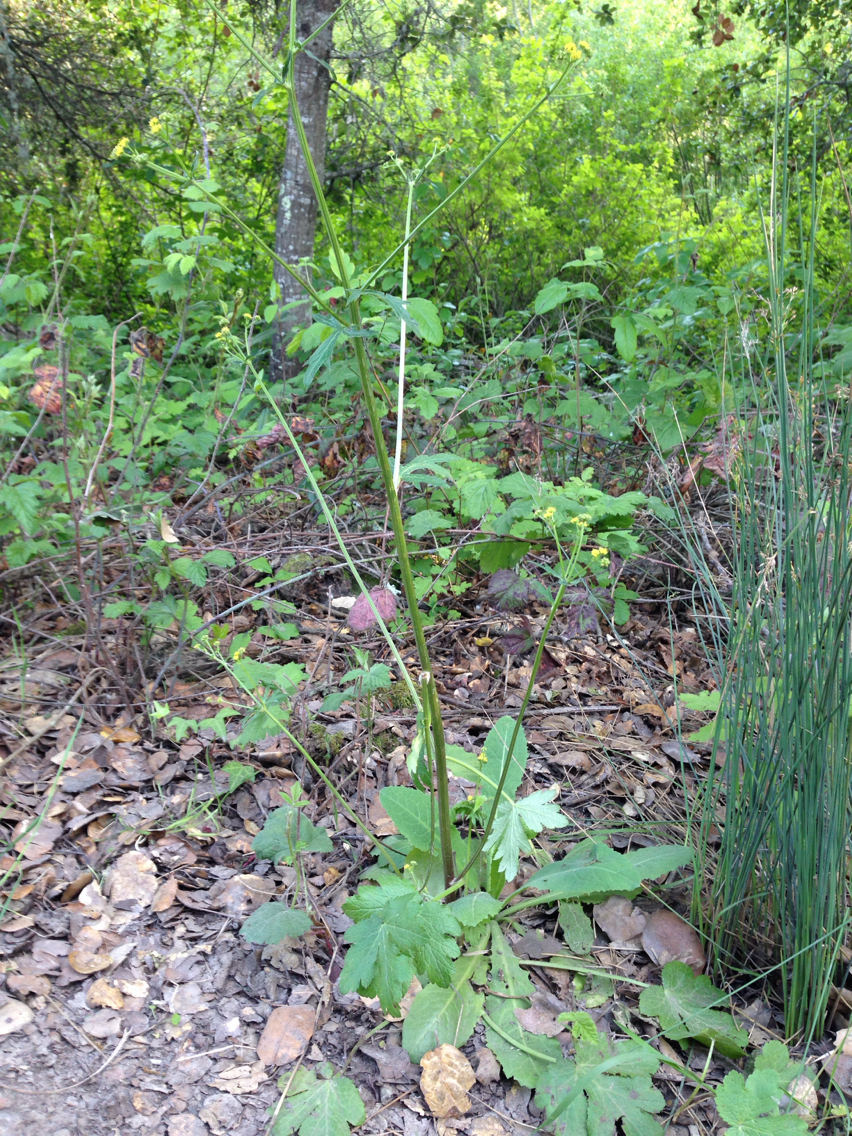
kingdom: Plantae
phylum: Tracheophyta
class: Magnoliopsida
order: Apiales
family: Apiaceae
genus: Sanicula
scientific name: Sanicula crassicaulis
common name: Western snakeroot
